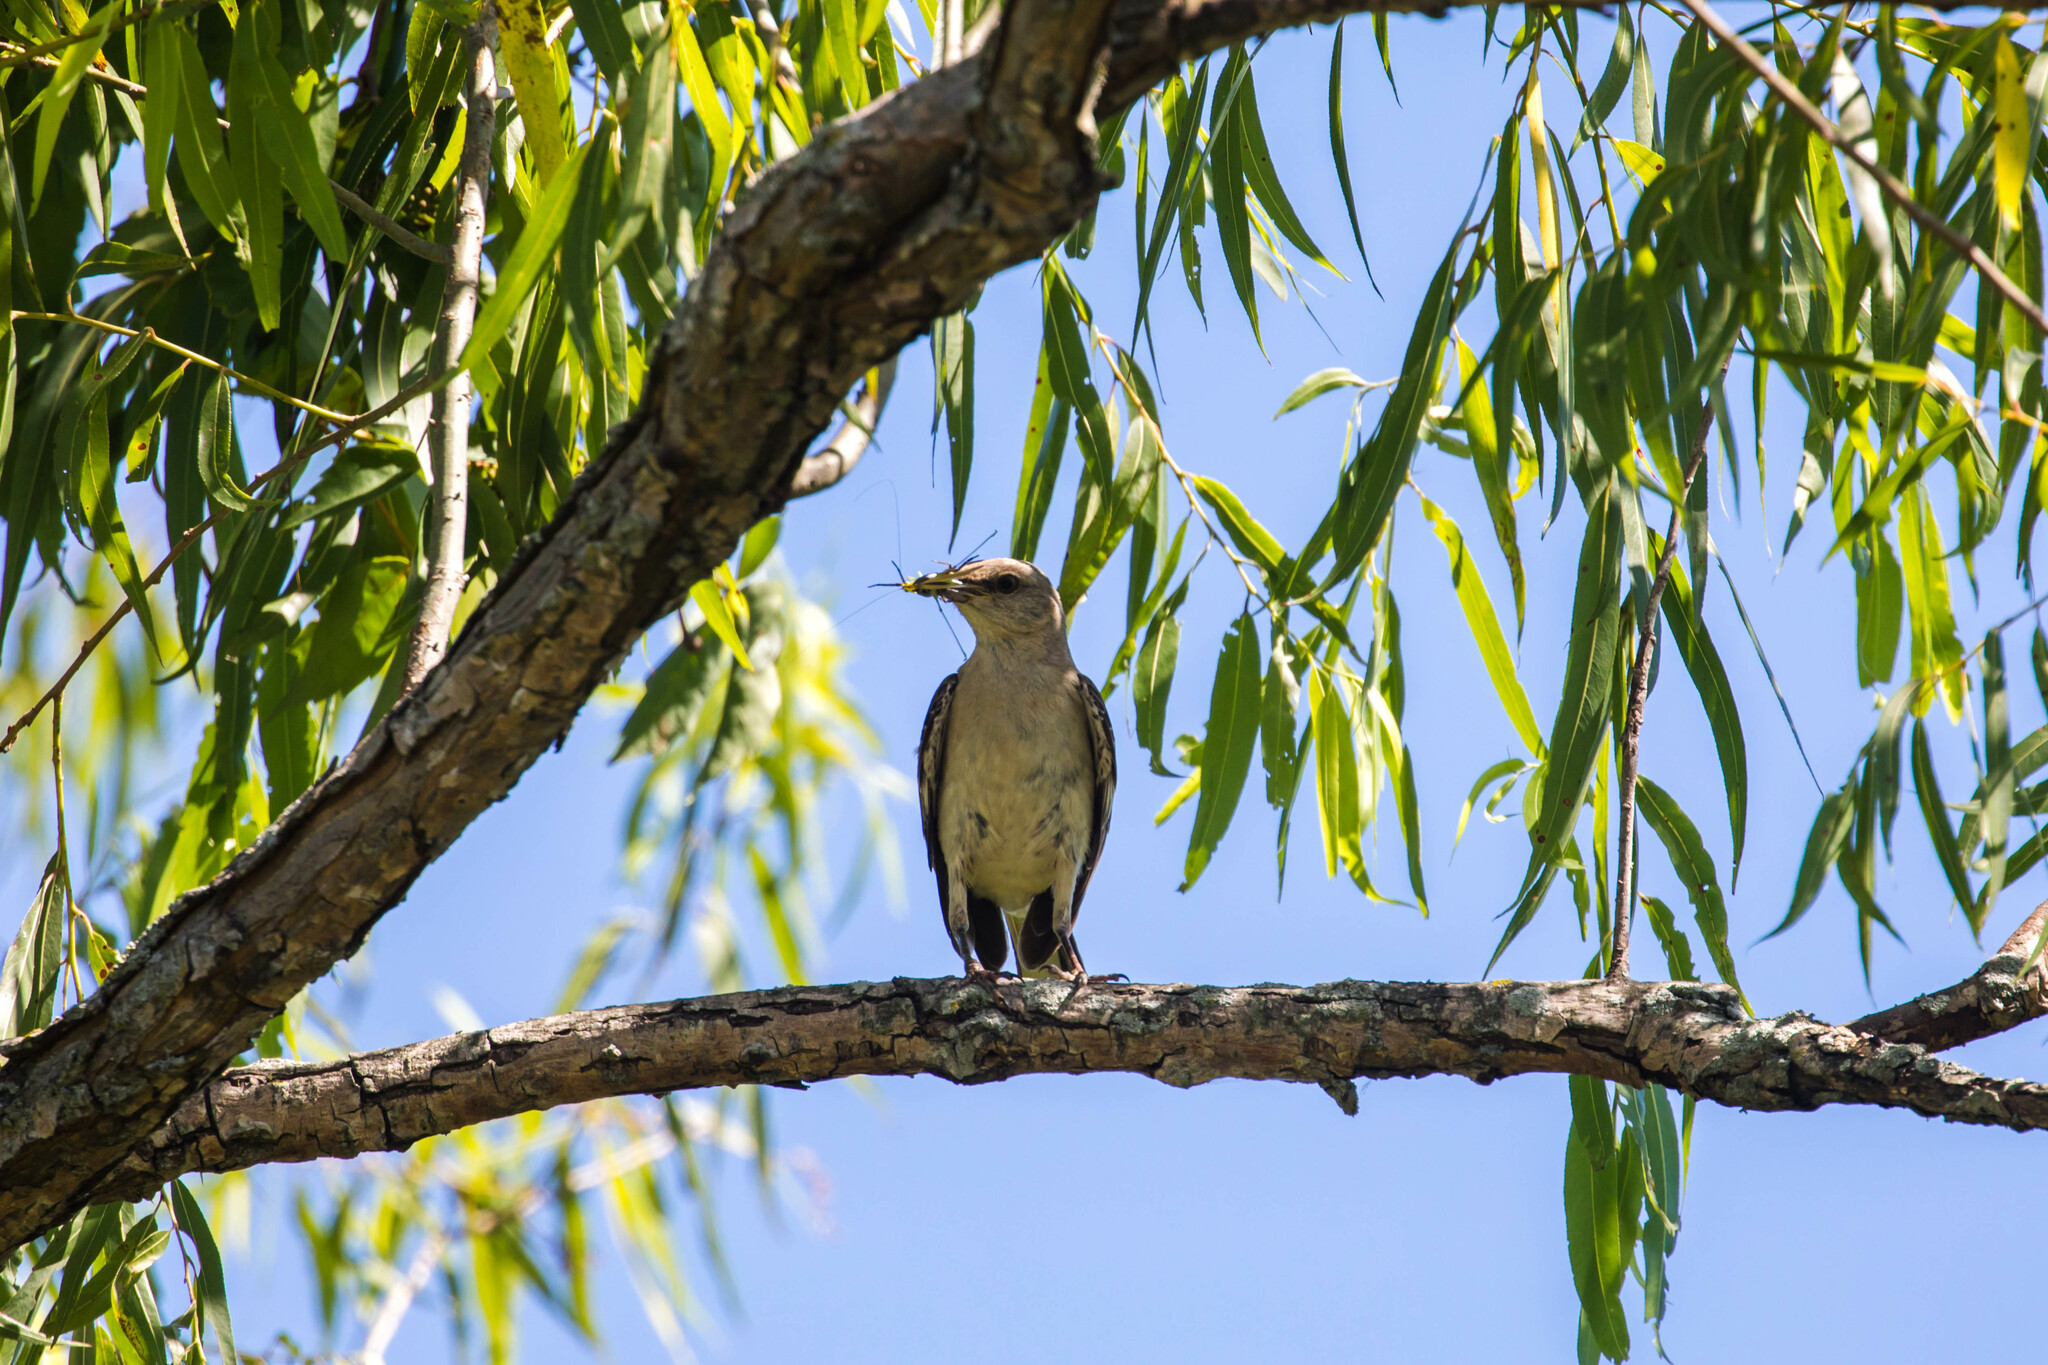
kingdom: Animalia
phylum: Chordata
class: Aves
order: Passeriformes
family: Mimidae
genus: Mimus
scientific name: Mimus polyglottos
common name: Northern mockingbird
